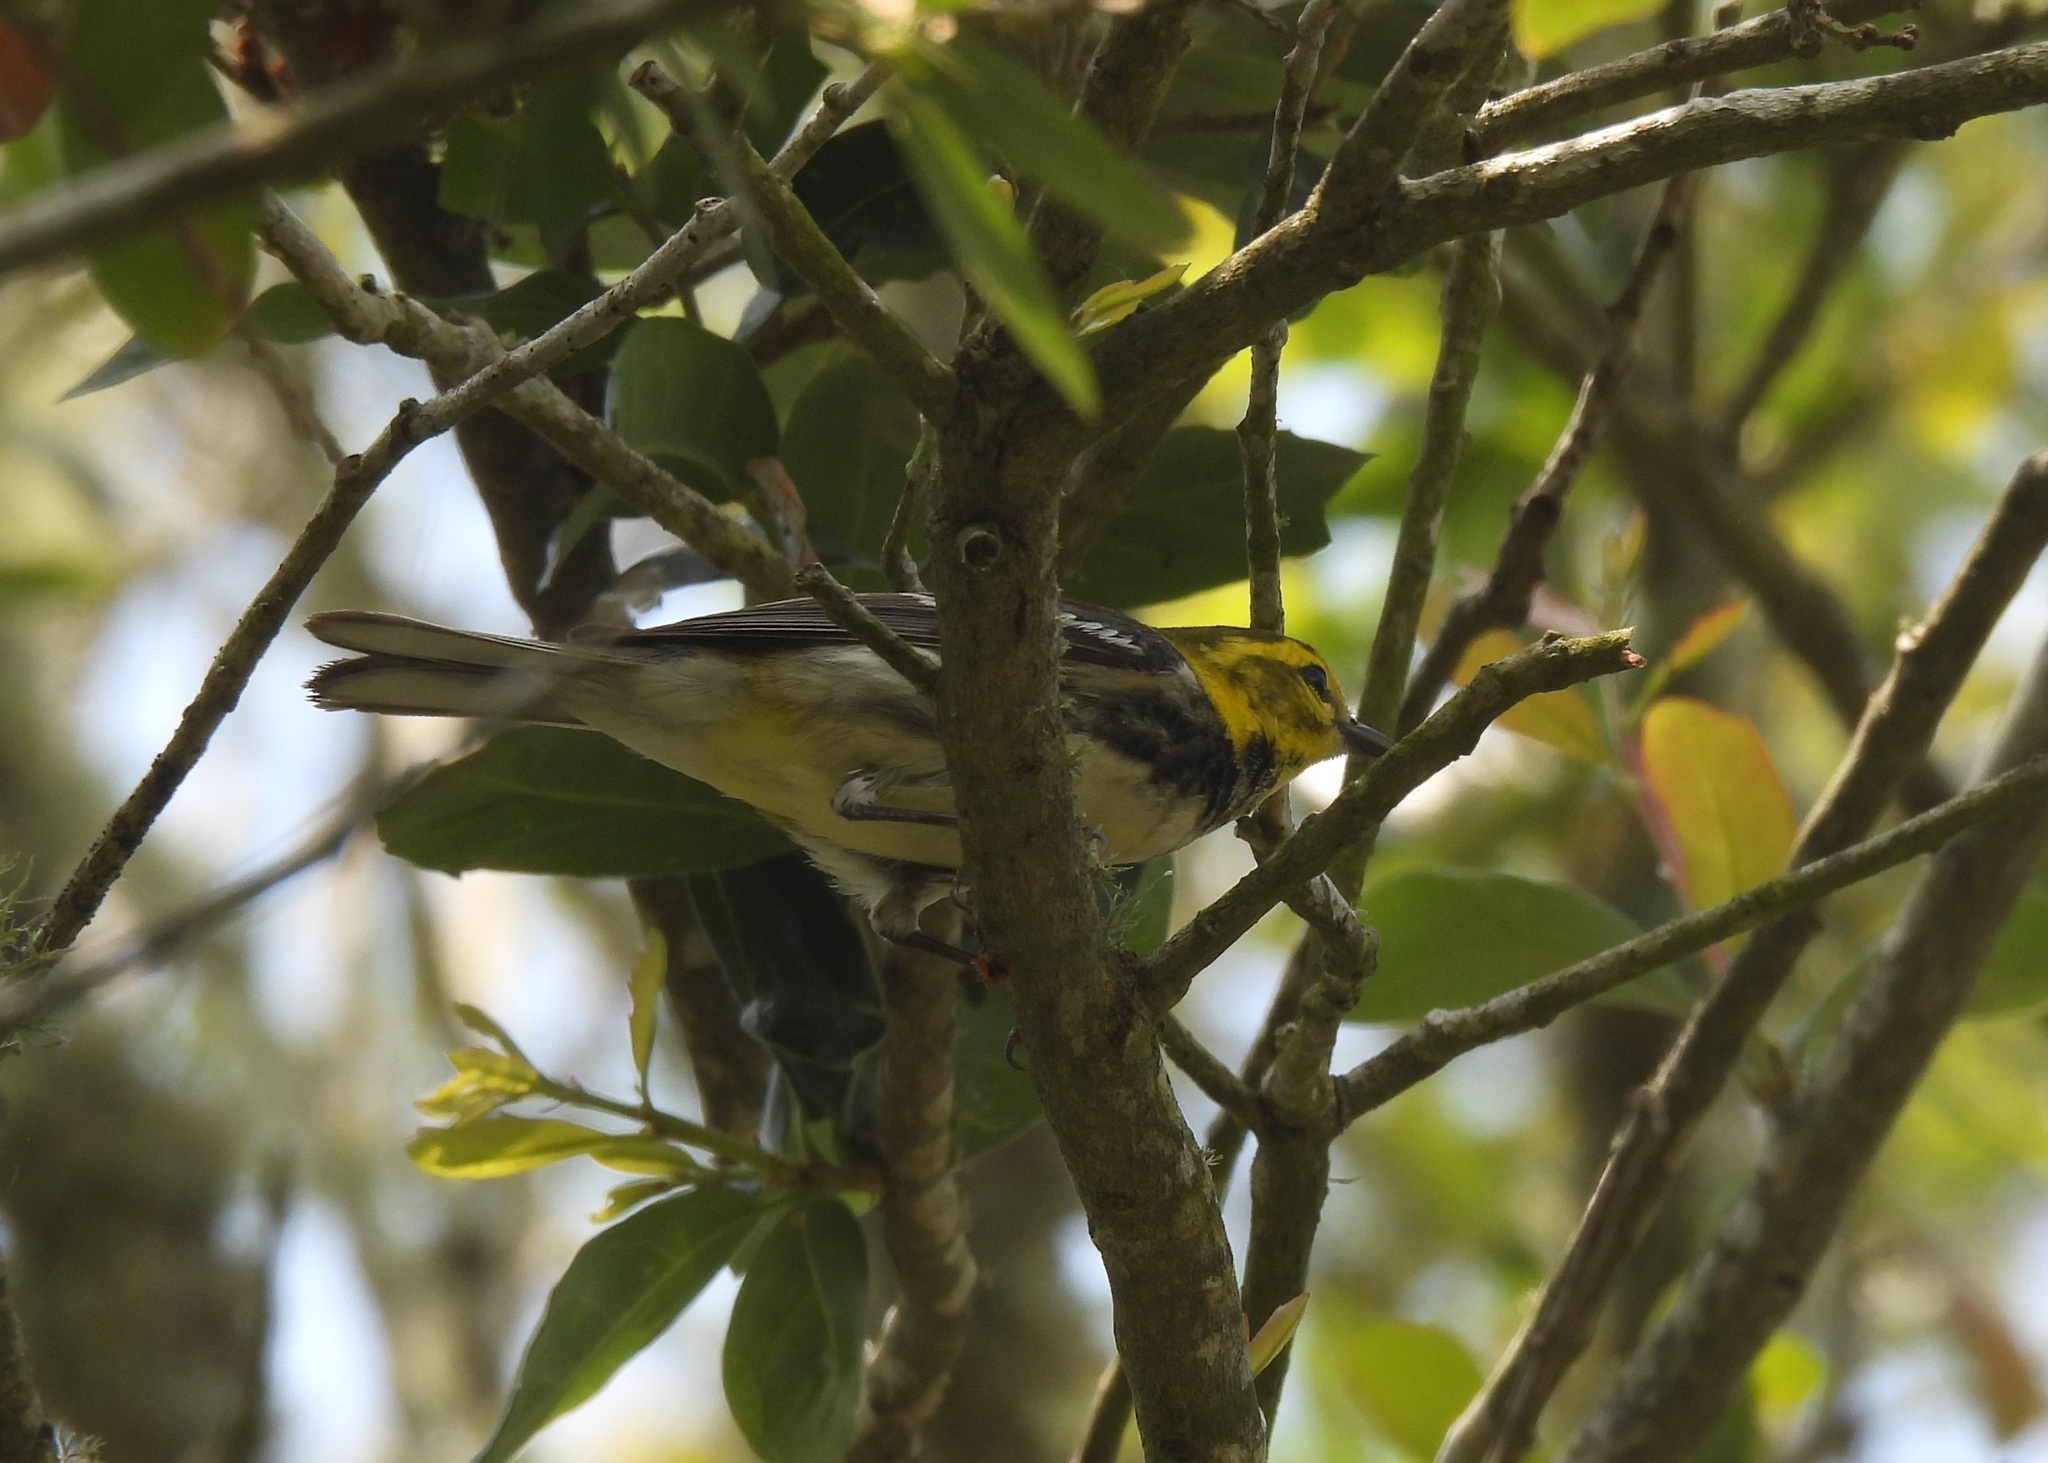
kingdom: Animalia
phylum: Chordata
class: Aves
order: Passeriformes
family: Parulidae
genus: Setophaga
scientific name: Setophaga virens
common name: Black-throated green warbler
